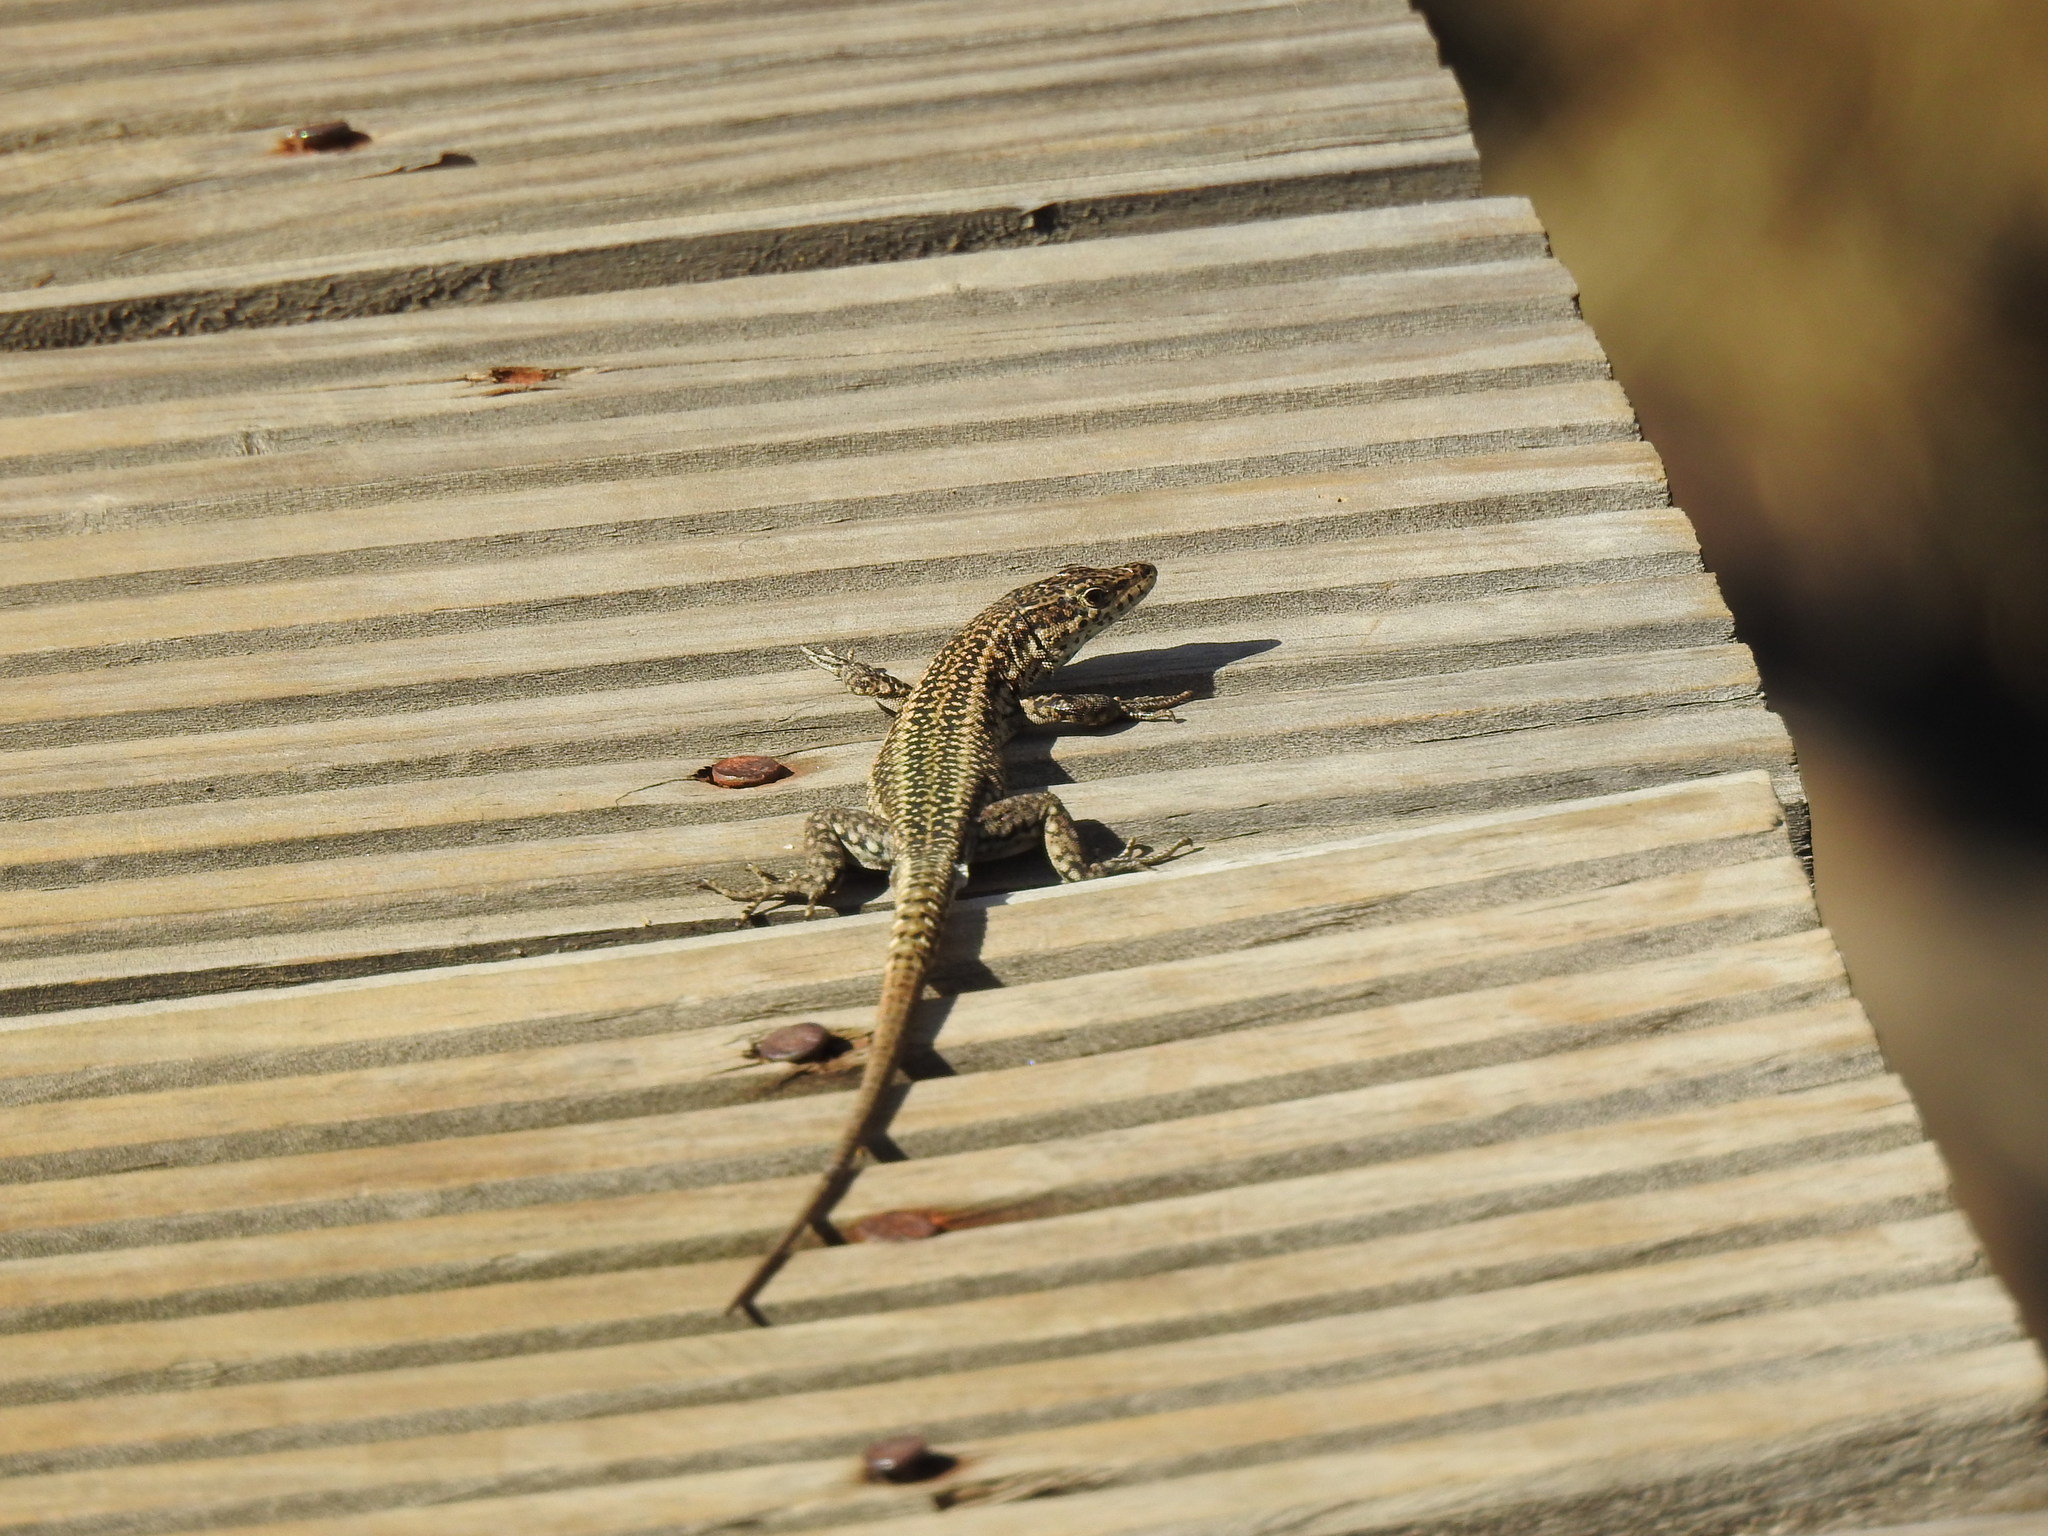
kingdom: Animalia
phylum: Chordata
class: Squamata
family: Lacertidae
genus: Podarcis
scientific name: Podarcis
